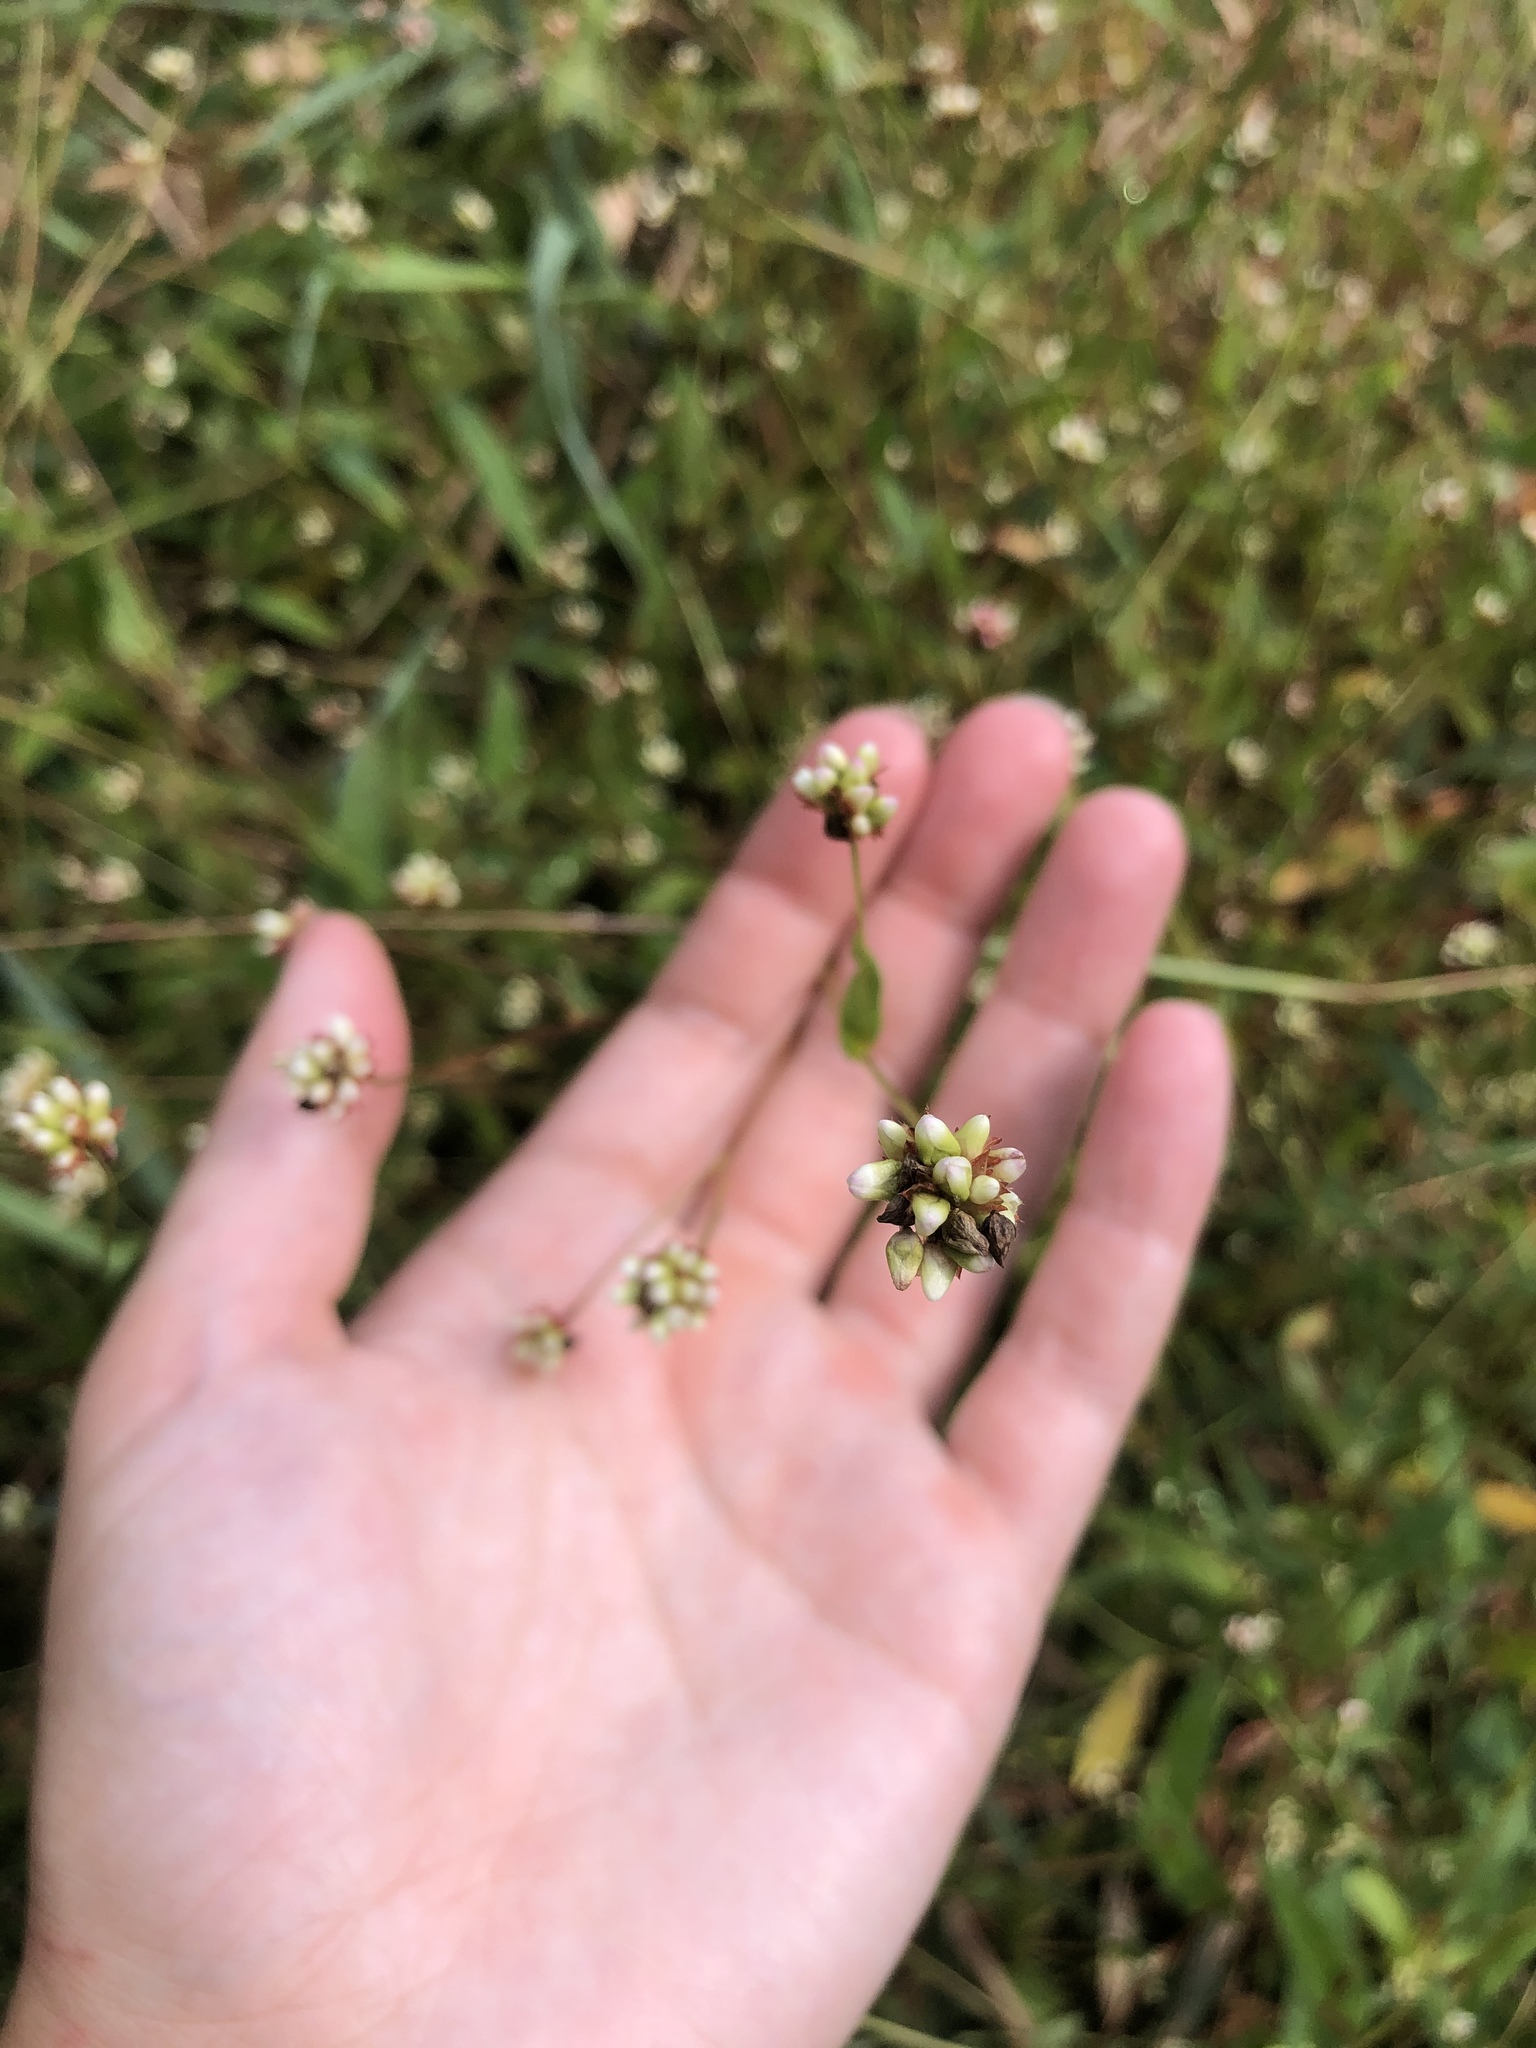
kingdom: Plantae
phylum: Tracheophyta
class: Magnoliopsida
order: Caryophyllales
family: Polygonaceae
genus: Persicaria
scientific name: Persicaria sagittata
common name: American tearthumb
